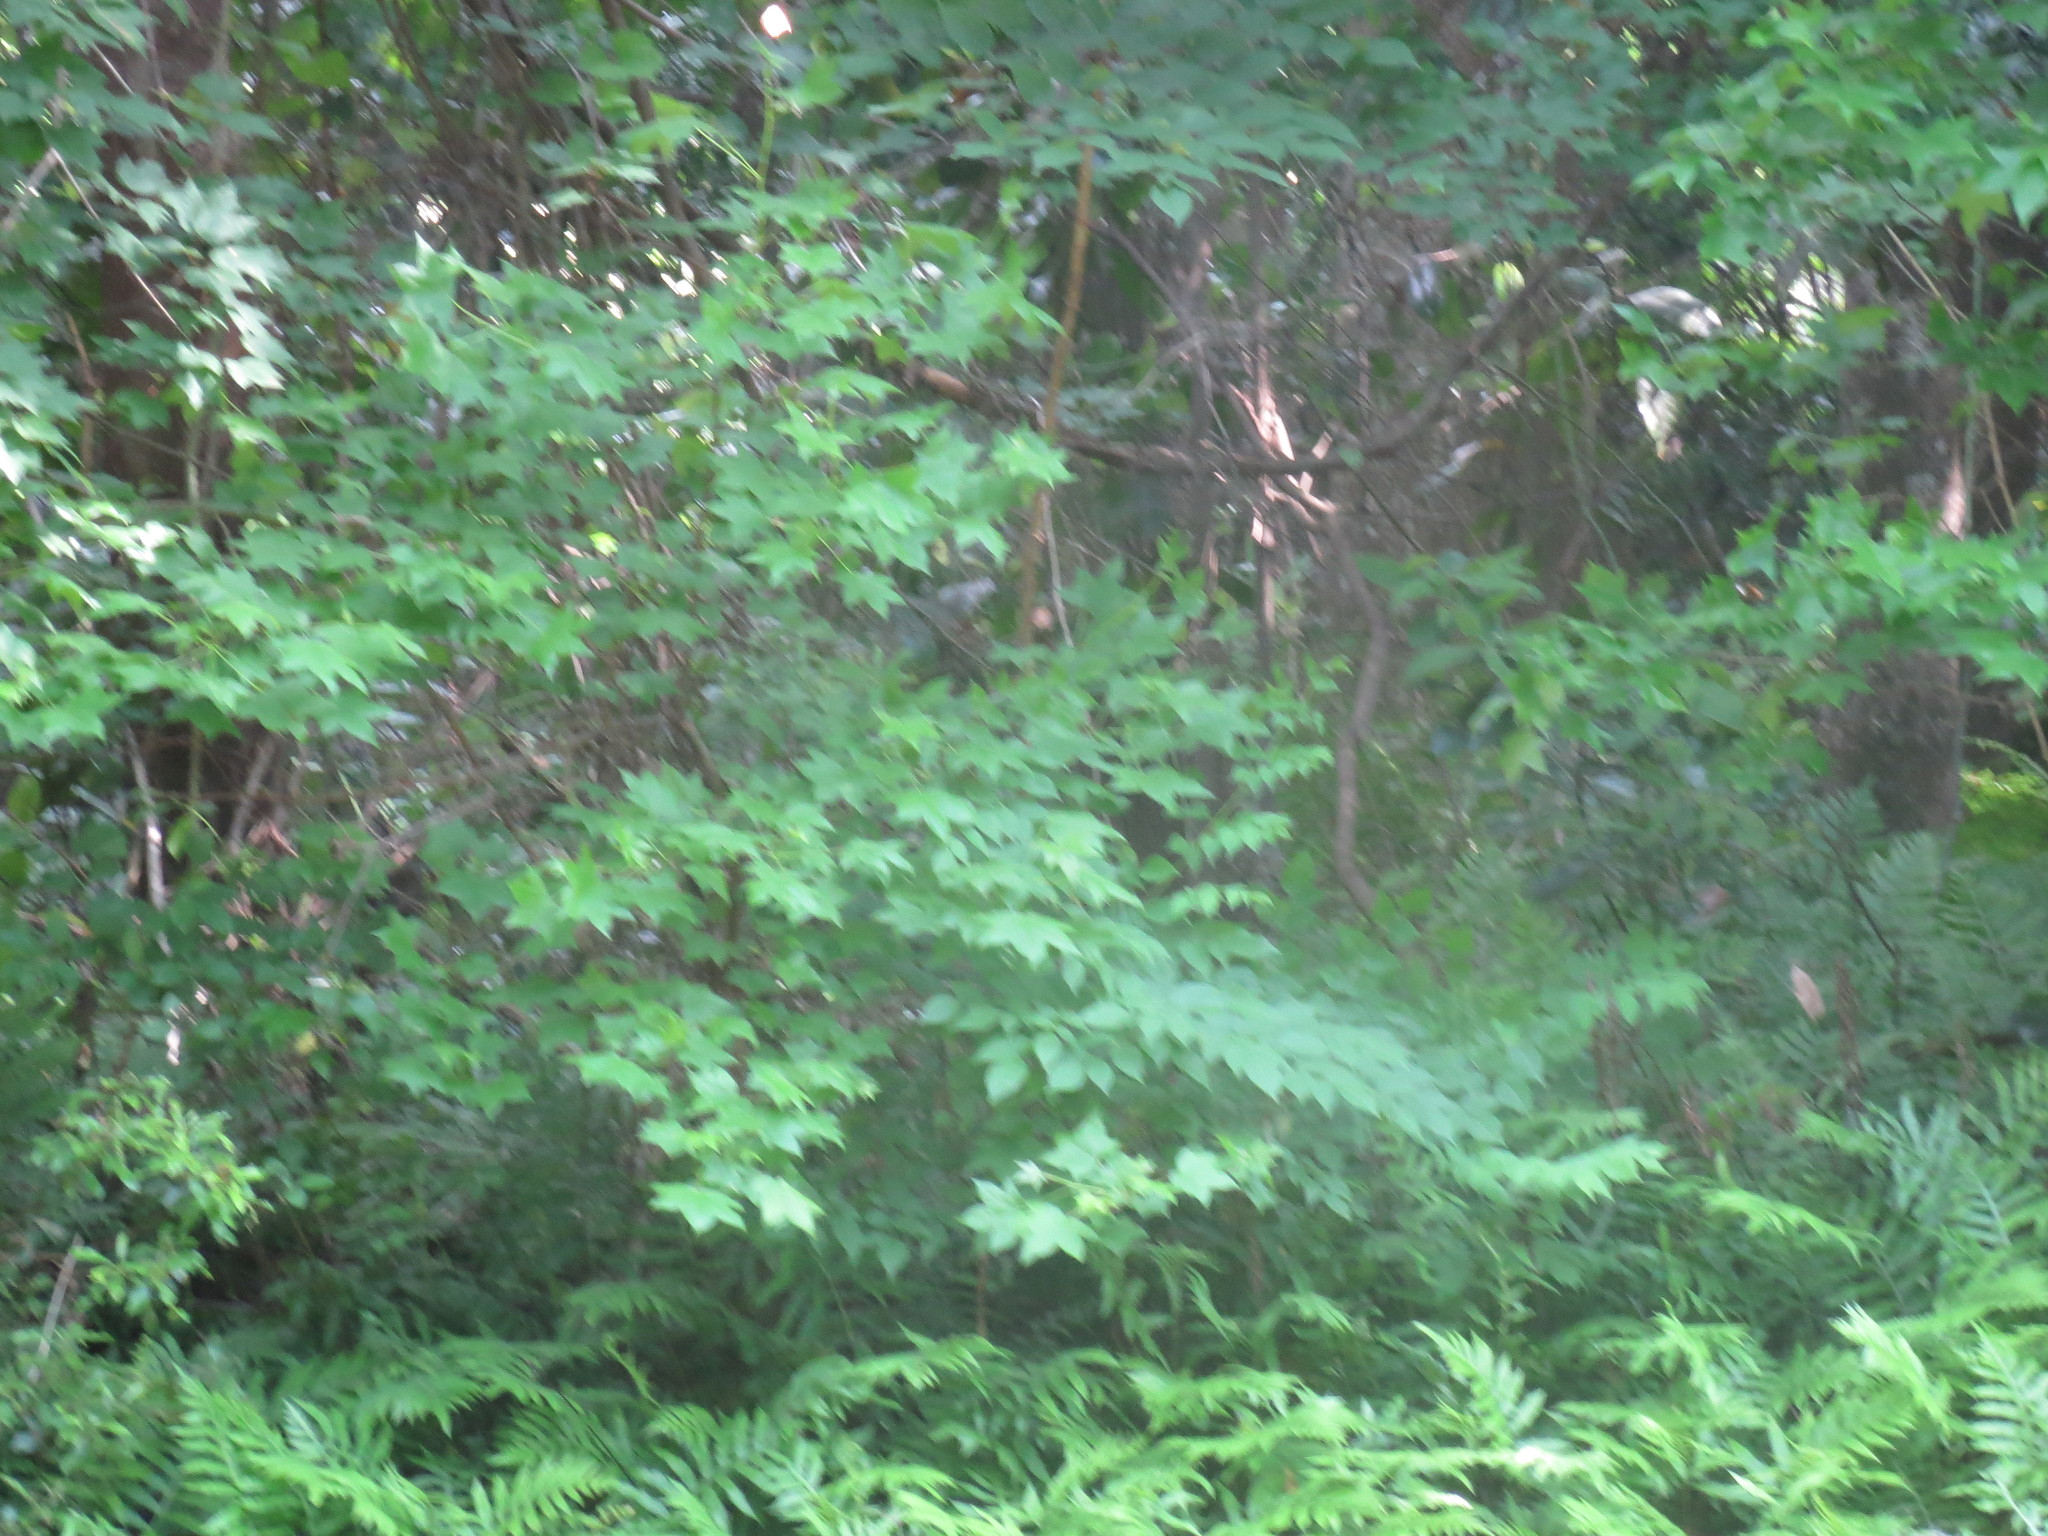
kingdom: Plantae
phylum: Tracheophyta
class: Magnoliopsida
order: Apiales
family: Araliaceae
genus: Aralia
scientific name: Aralia spinosa
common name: Hercules'-club
